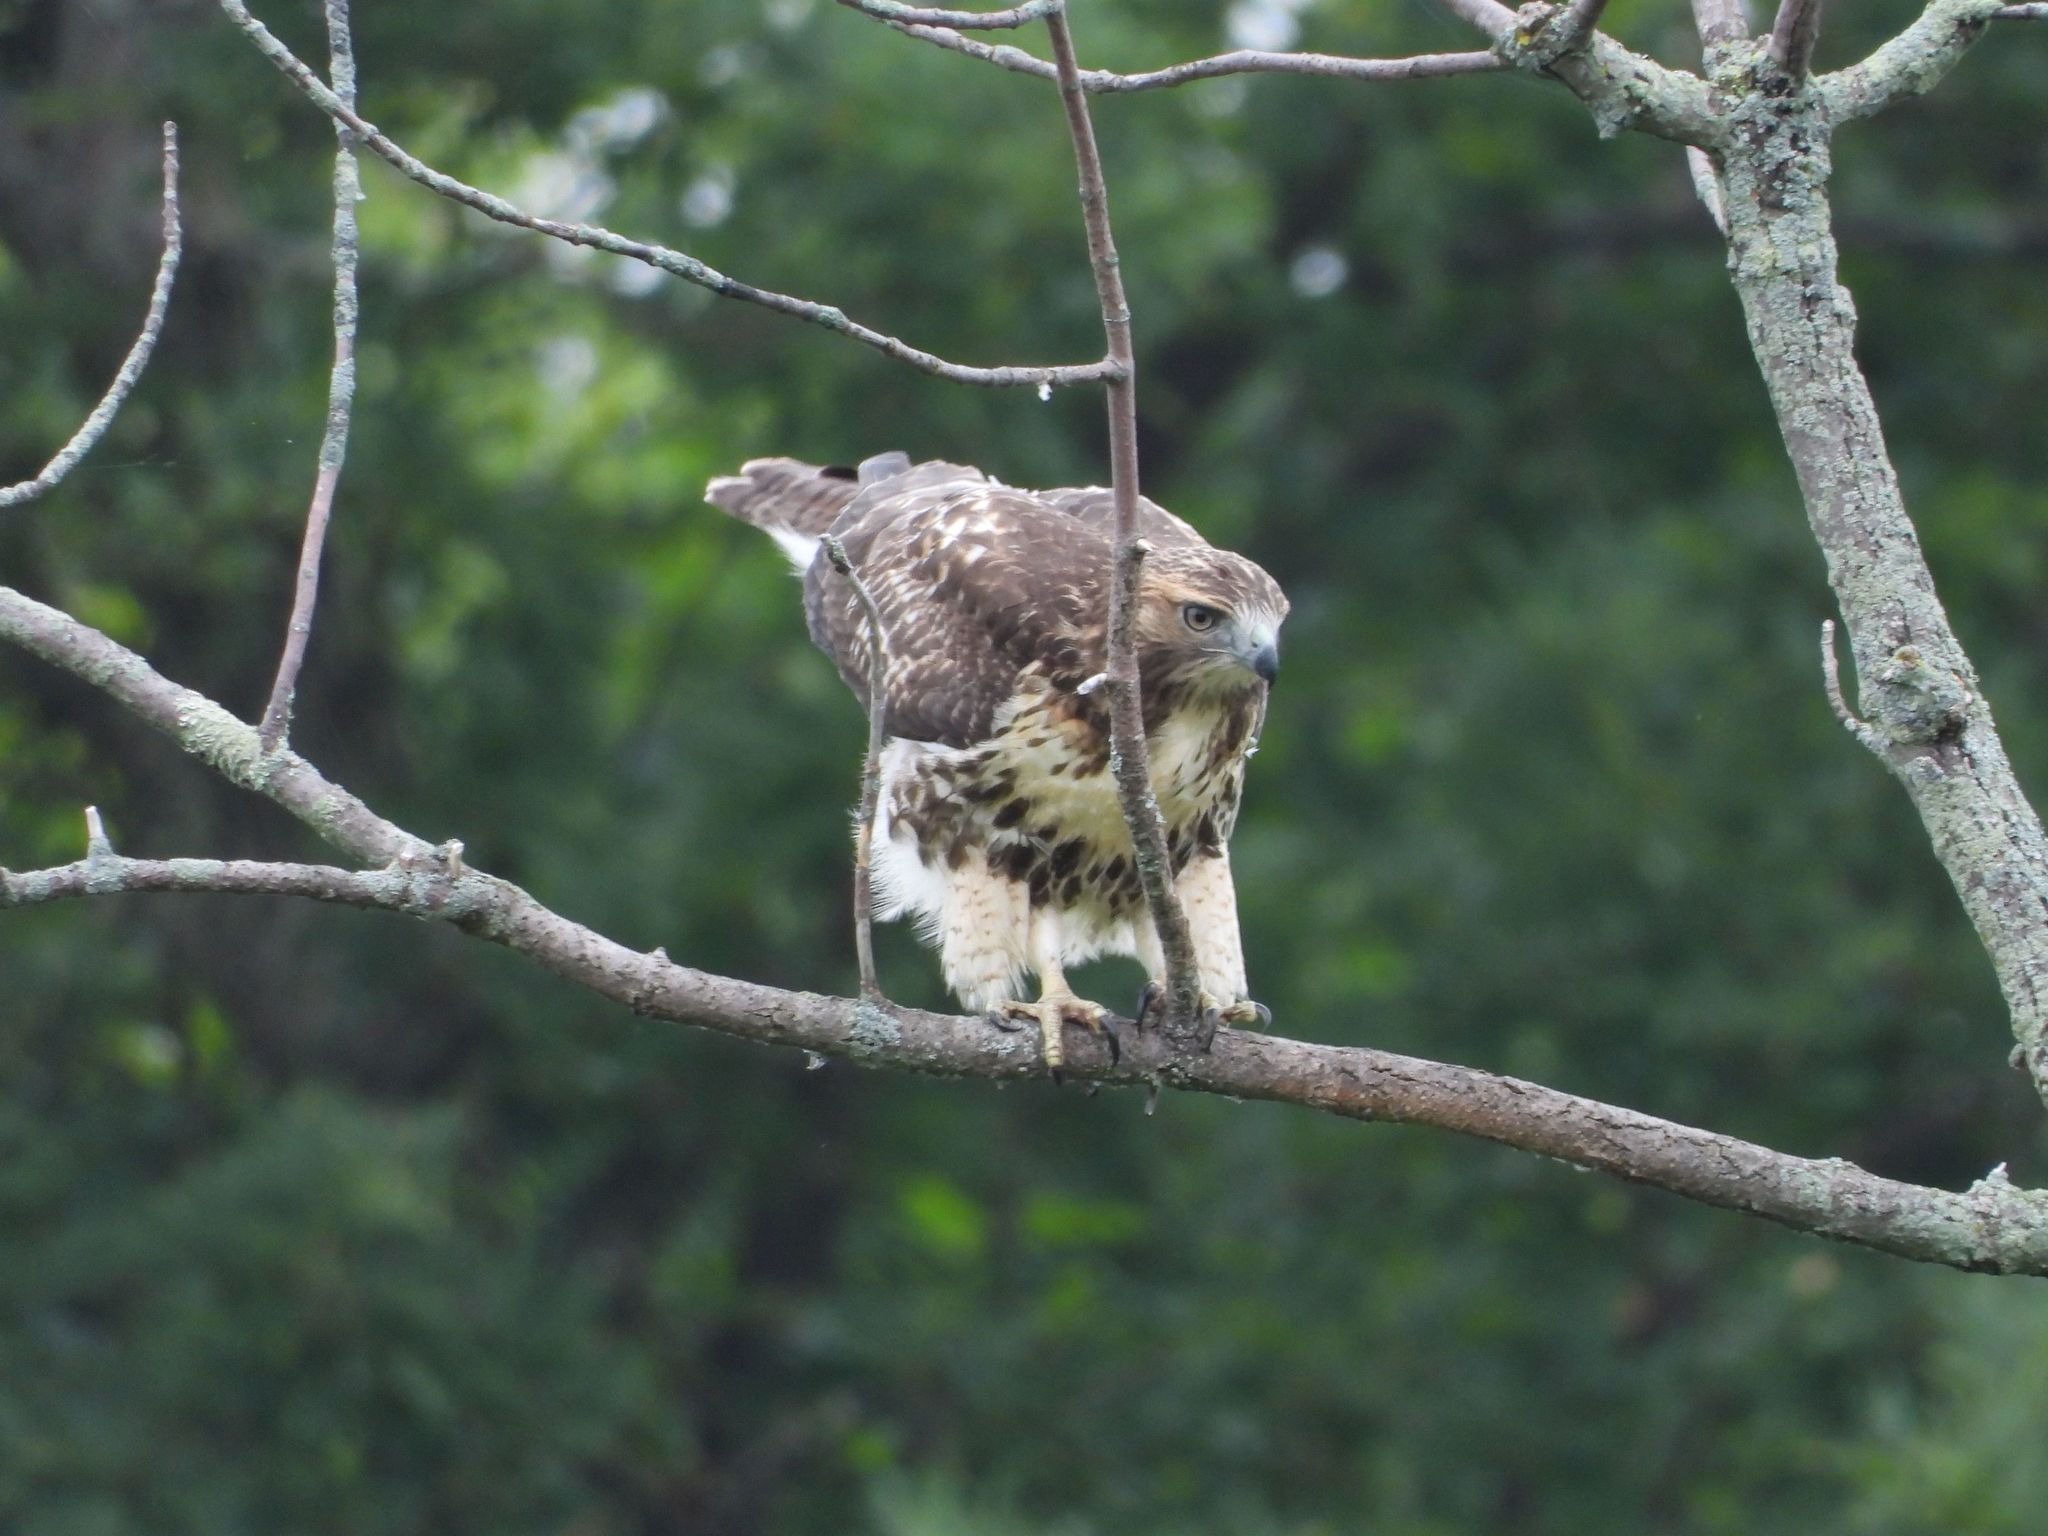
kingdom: Animalia
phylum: Chordata
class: Aves
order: Accipitriformes
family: Accipitridae
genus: Buteo
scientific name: Buteo jamaicensis
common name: Red-tailed hawk
